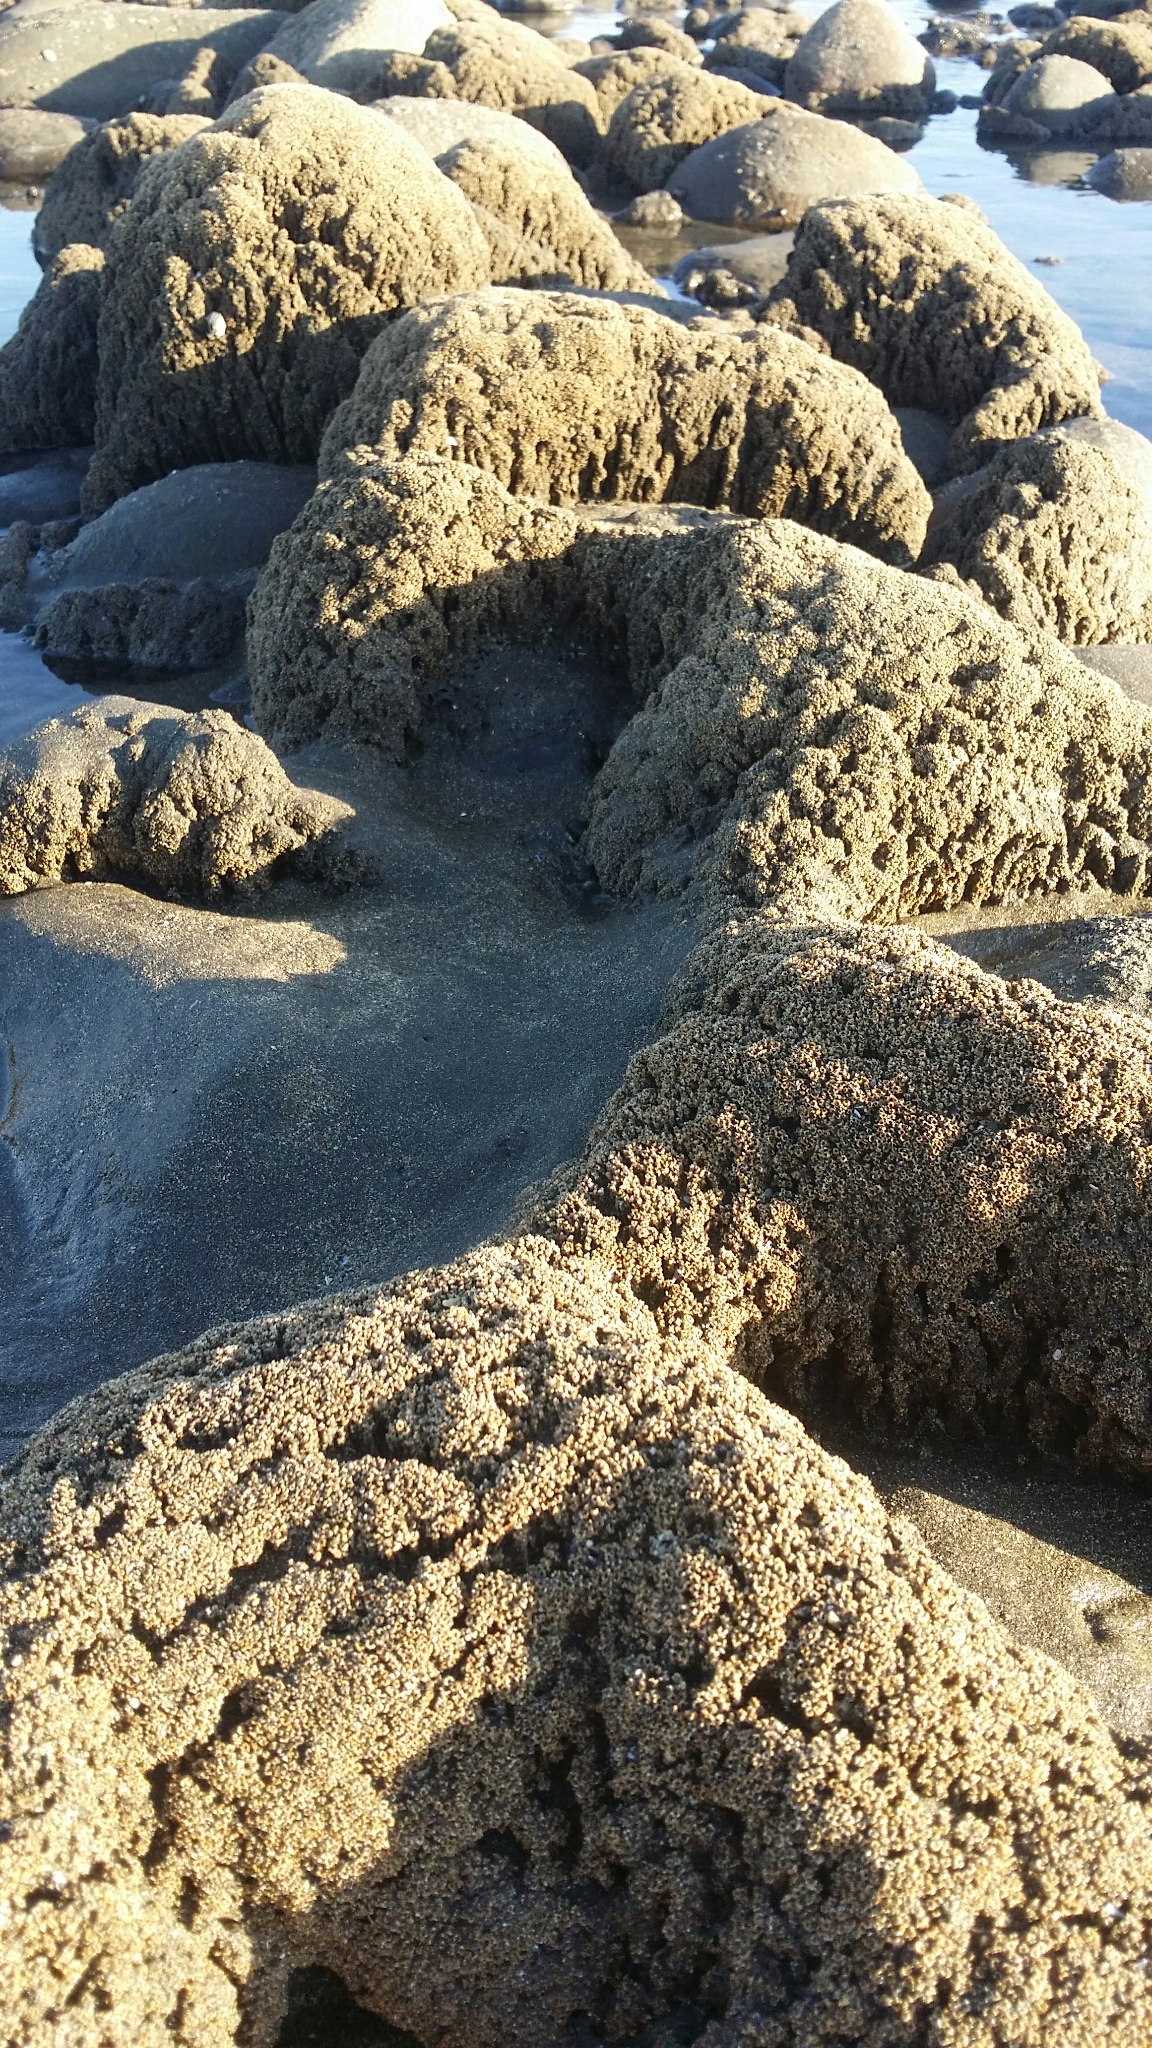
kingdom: Animalia
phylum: Annelida
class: Polychaeta
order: Sabellida
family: Sabellariidae
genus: Neosabellaria
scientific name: Neosabellaria kaiparaensis
